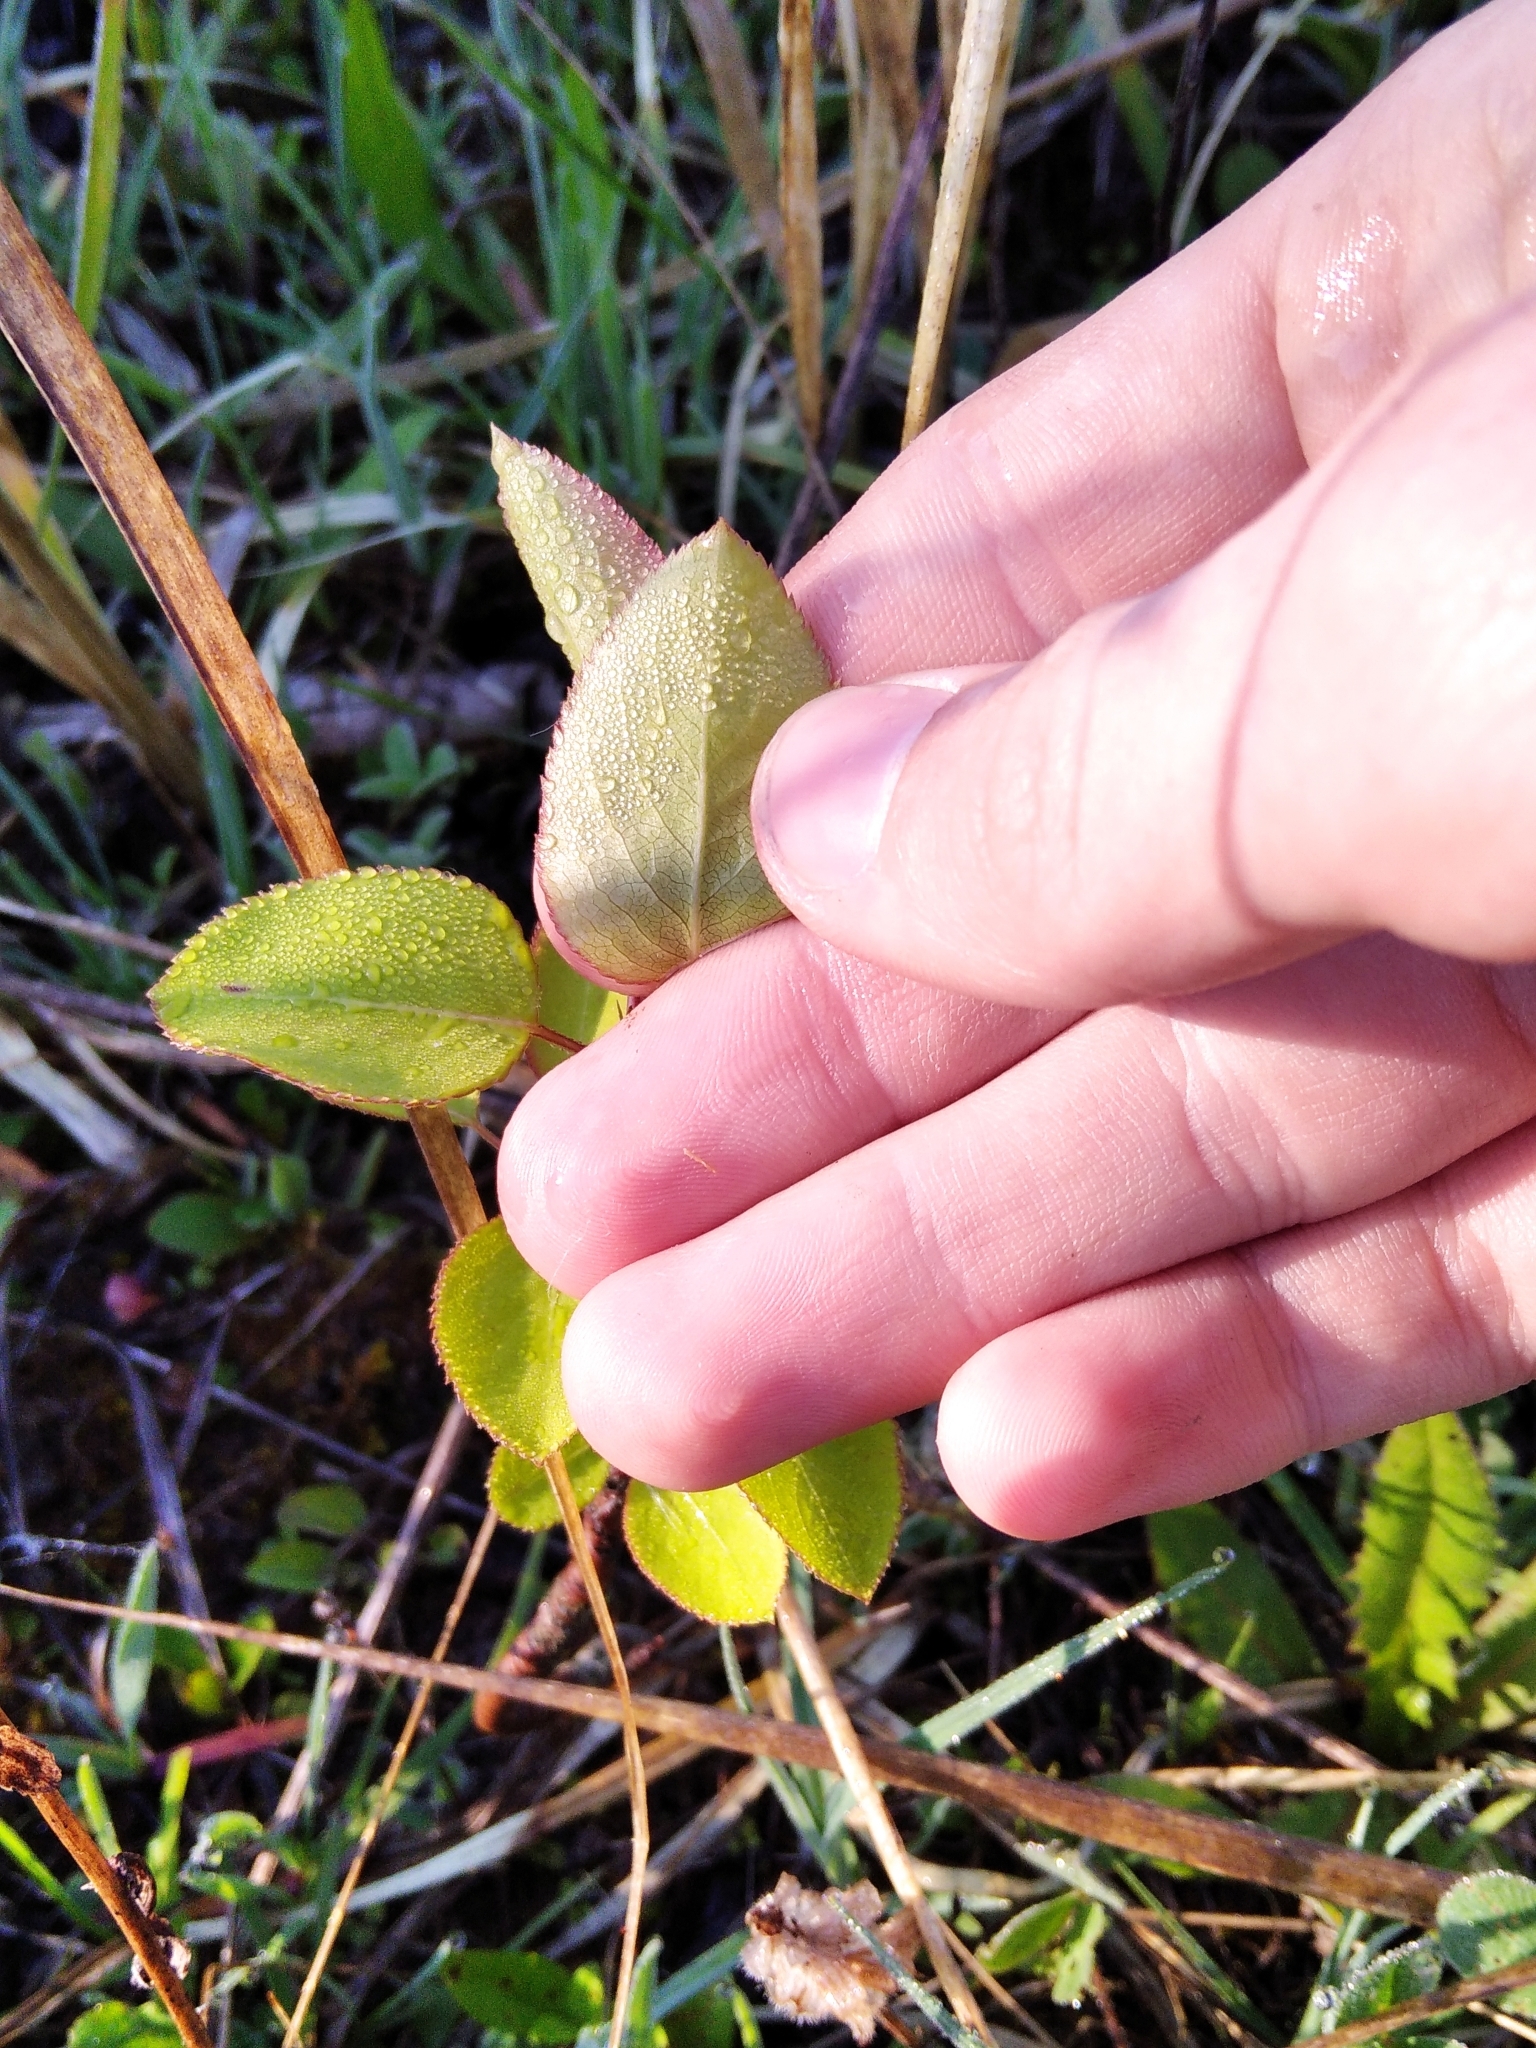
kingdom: Plantae
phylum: Tracheophyta
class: Magnoliopsida
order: Rosales
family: Rosaceae
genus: Pyrus
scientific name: Pyrus communis
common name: Pear
